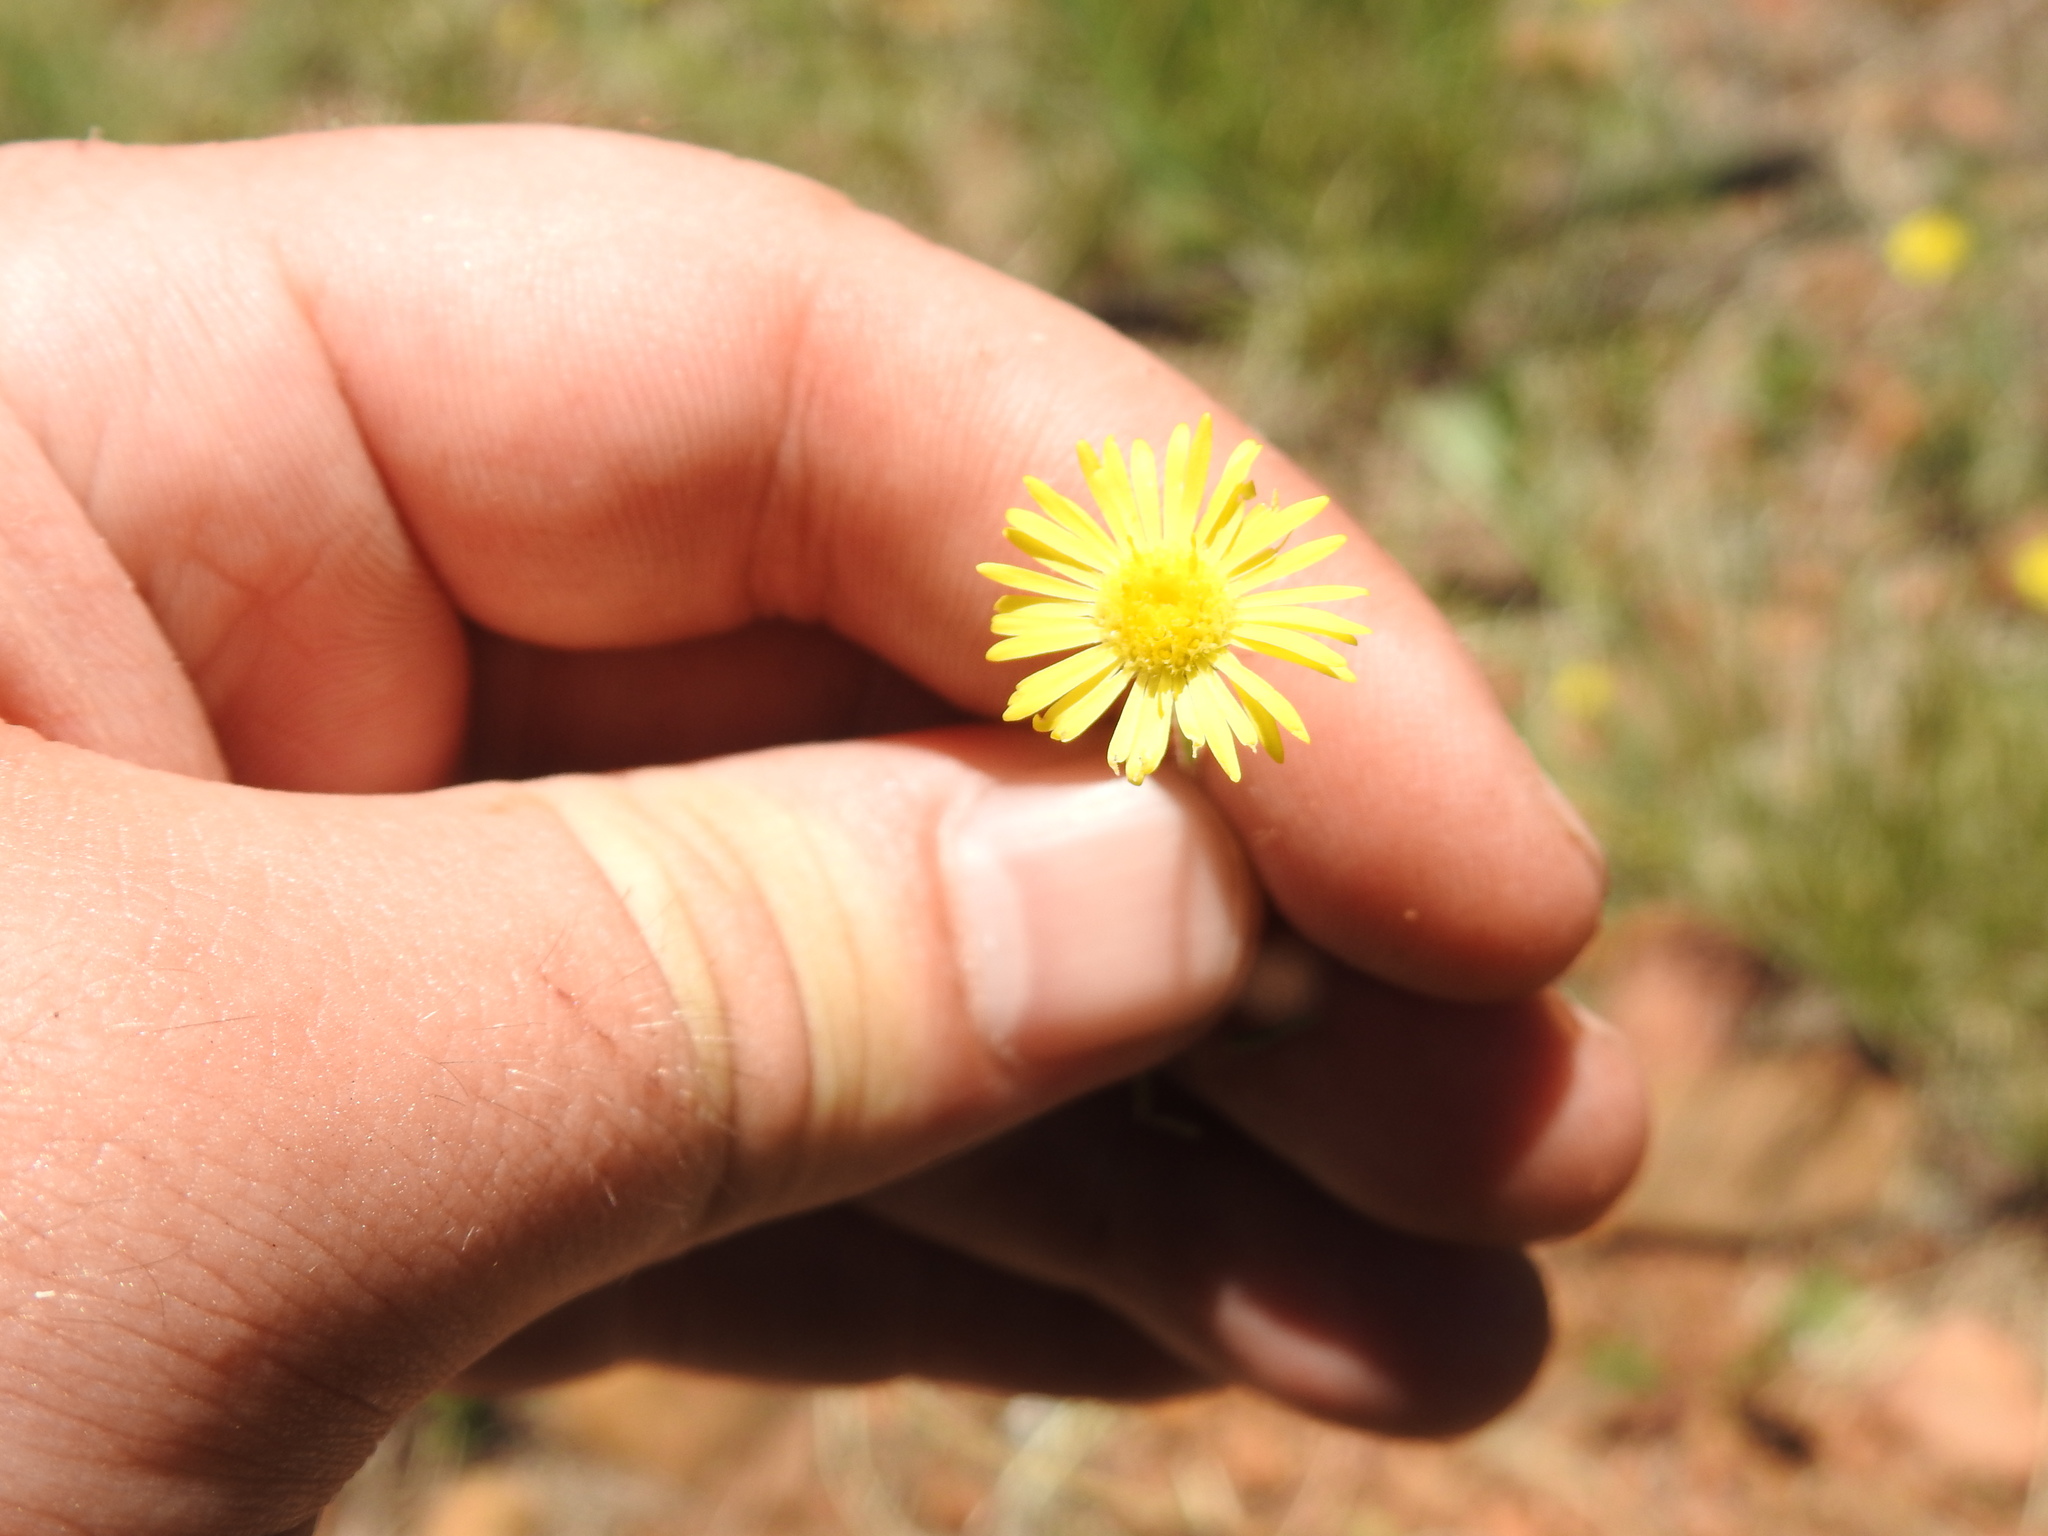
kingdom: Plantae
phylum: Tracheophyta
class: Magnoliopsida
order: Asterales
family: Asteraceae
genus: Felicia
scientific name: Felicia mossamedensis
